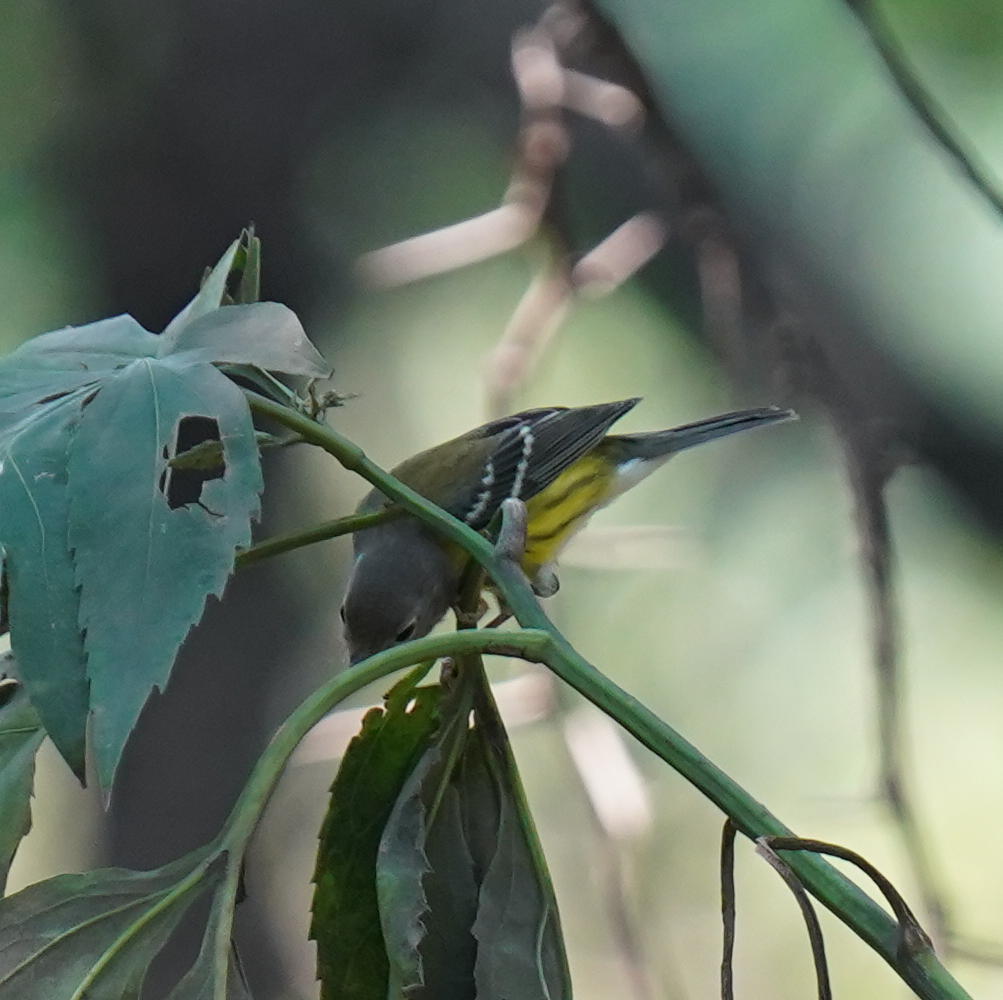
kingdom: Animalia
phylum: Chordata
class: Aves
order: Passeriformes
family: Parulidae
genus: Setophaga
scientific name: Setophaga magnolia
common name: Magnolia warbler
